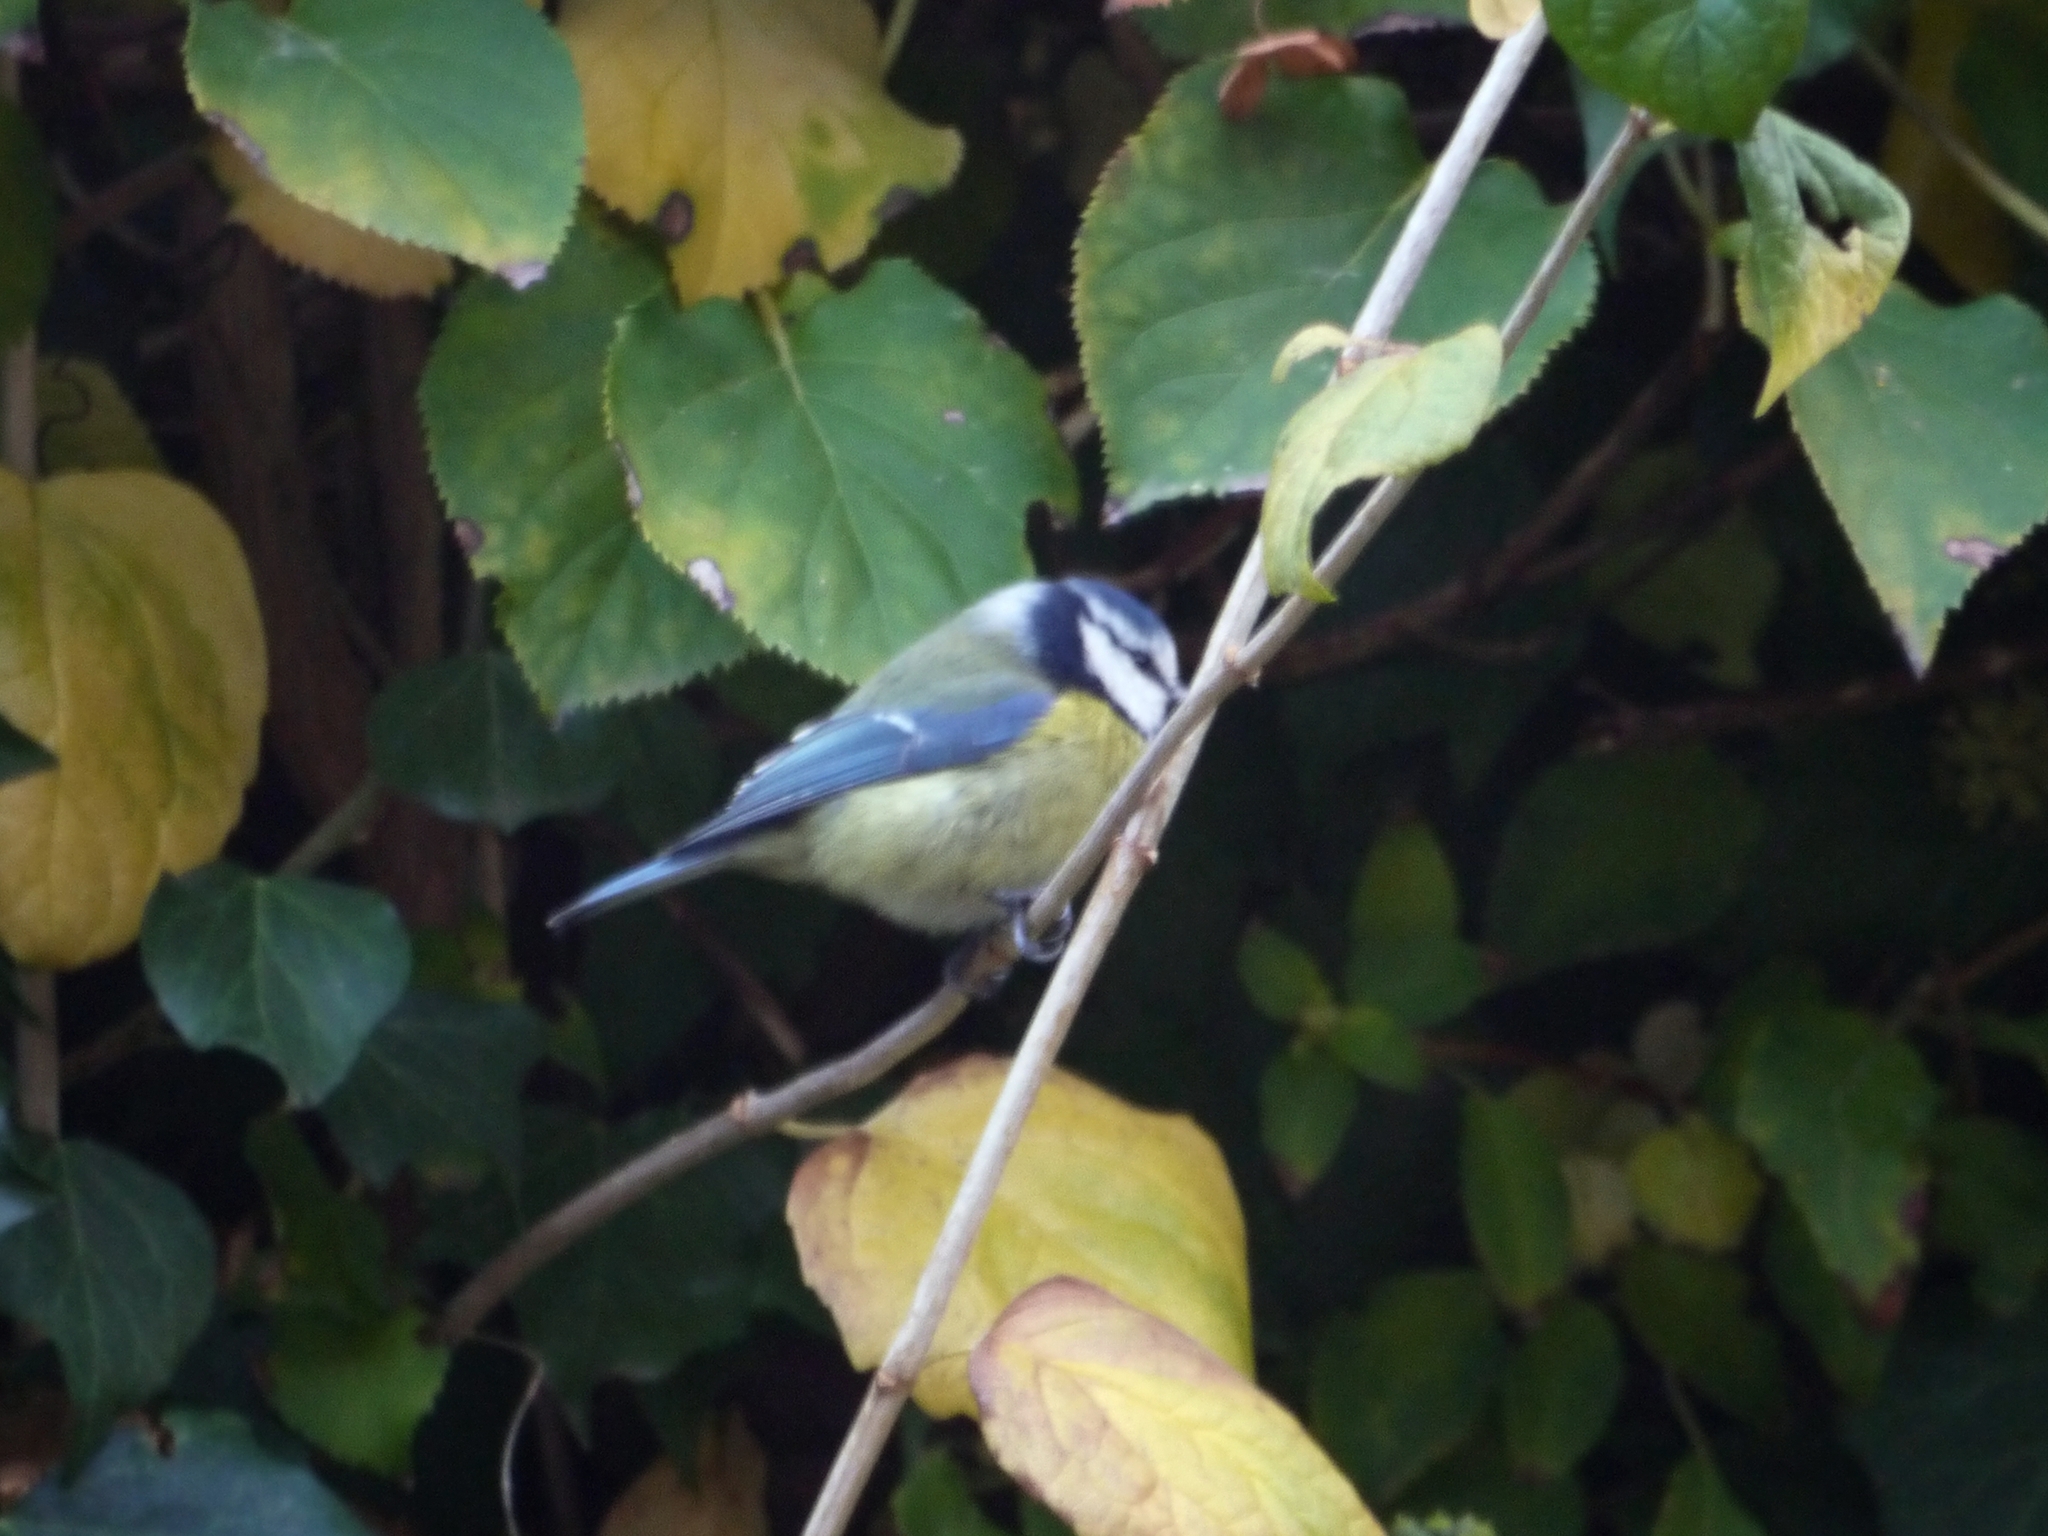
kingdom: Animalia
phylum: Chordata
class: Aves
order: Passeriformes
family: Paridae
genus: Cyanistes
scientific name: Cyanistes caeruleus
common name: Eurasian blue tit
